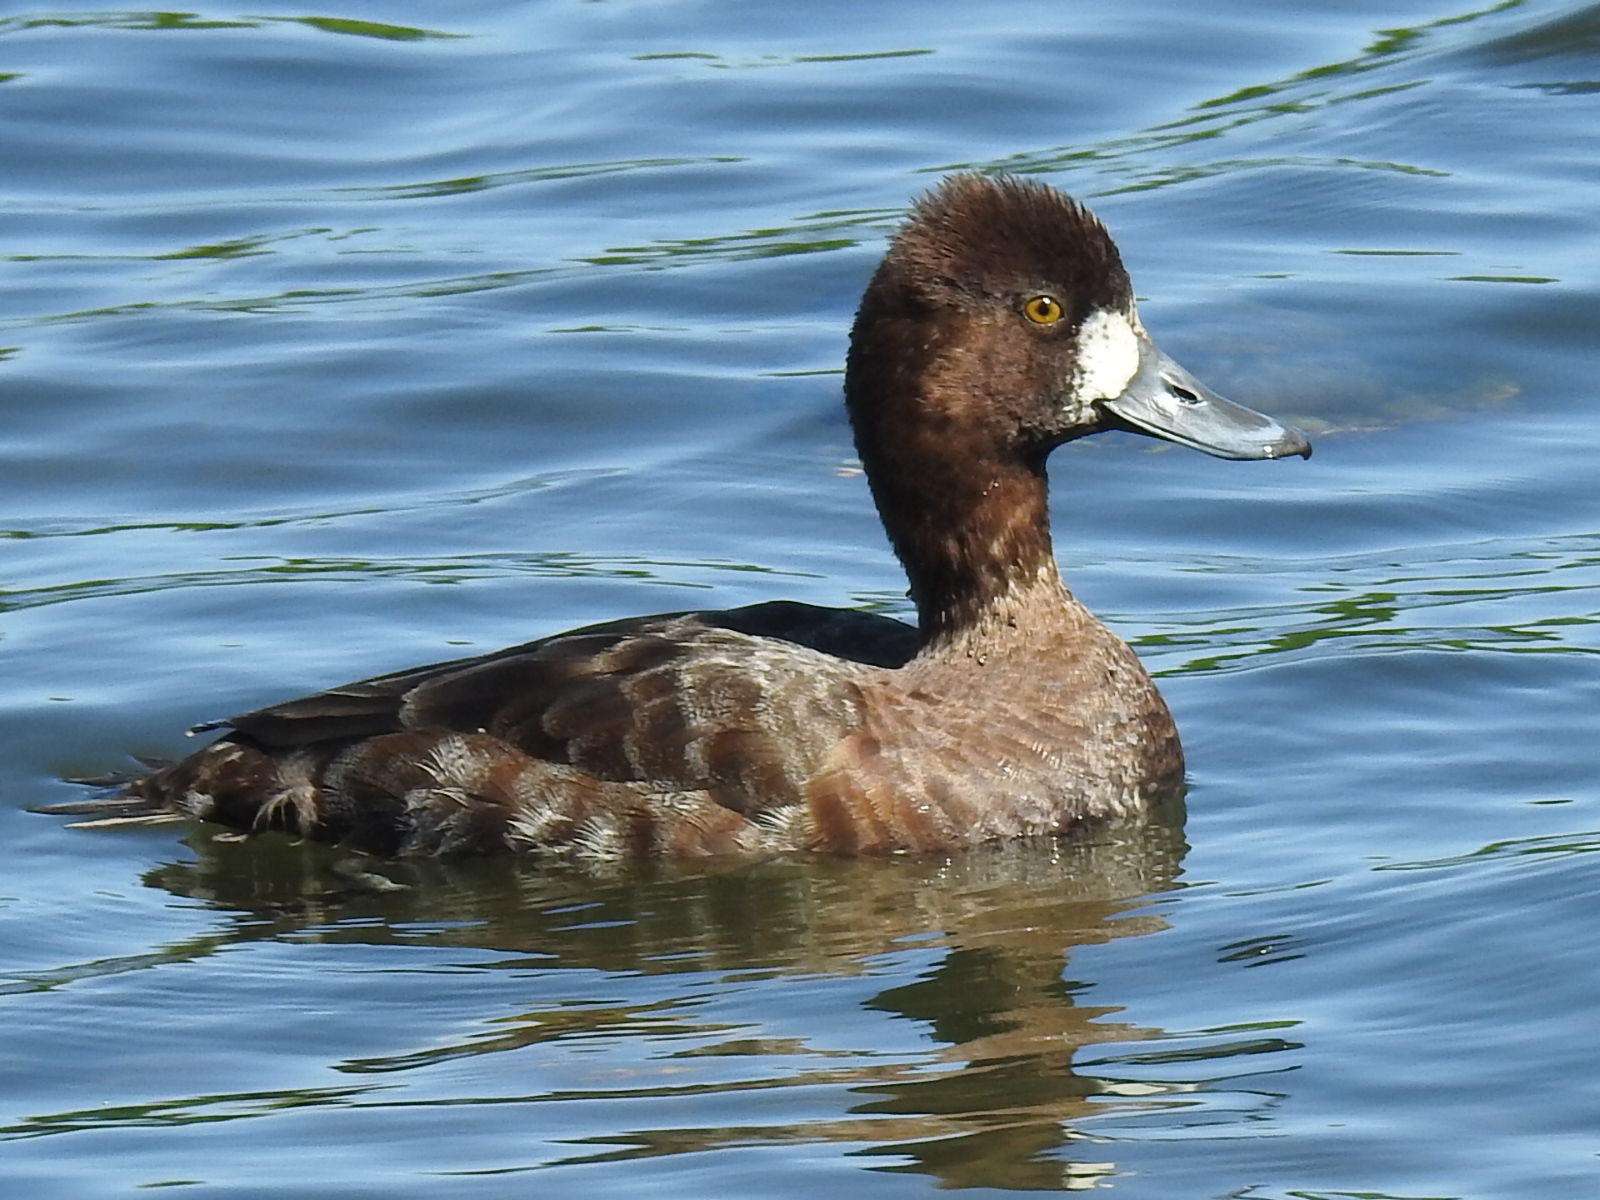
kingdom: Animalia
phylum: Chordata
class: Aves
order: Anseriformes
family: Anatidae
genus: Aythya
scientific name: Aythya affinis
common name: Lesser scaup
